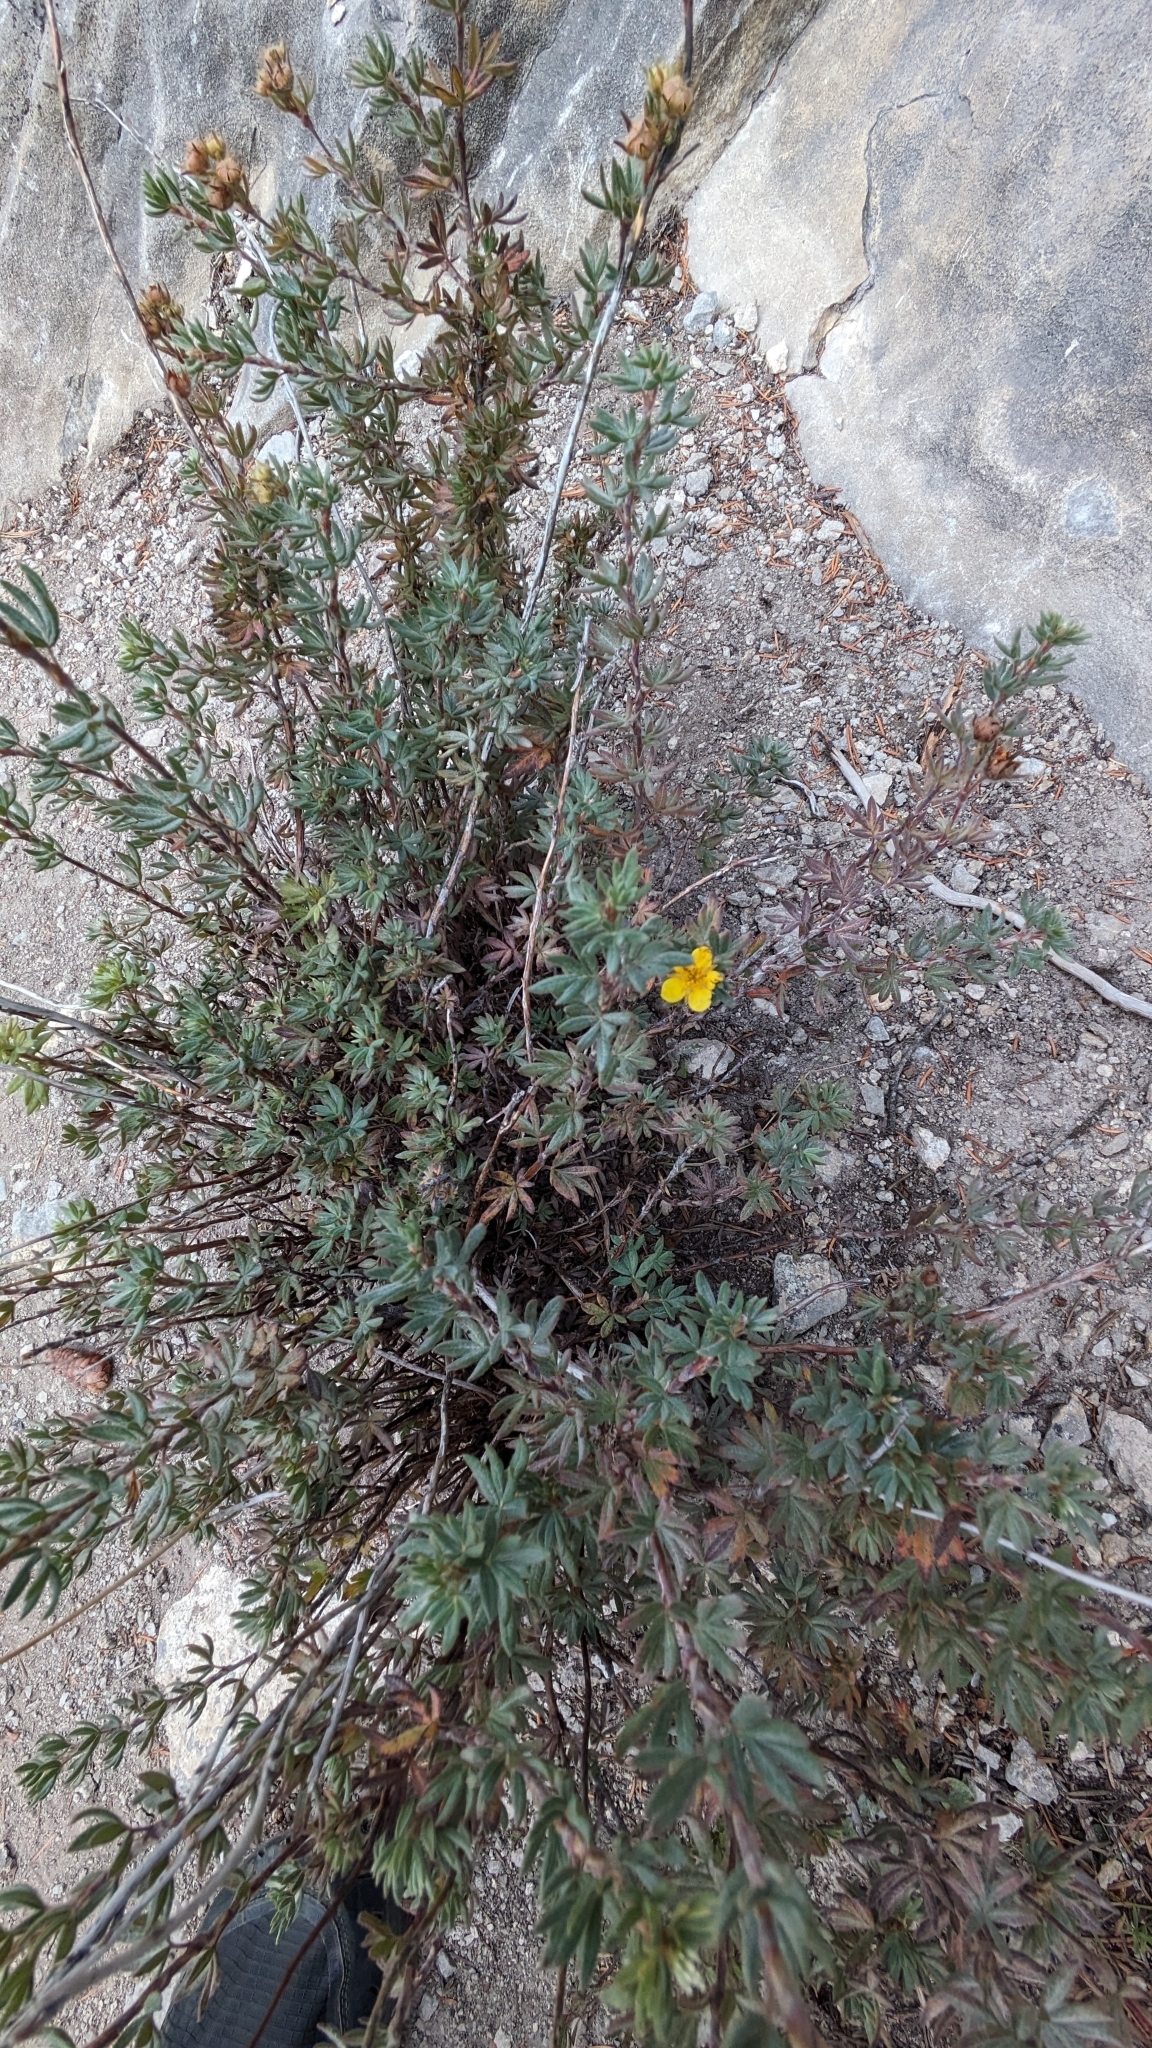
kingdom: Plantae
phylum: Tracheophyta
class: Magnoliopsida
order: Rosales
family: Rosaceae
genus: Dasiphora
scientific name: Dasiphora fruticosa
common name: Shrubby cinquefoil
